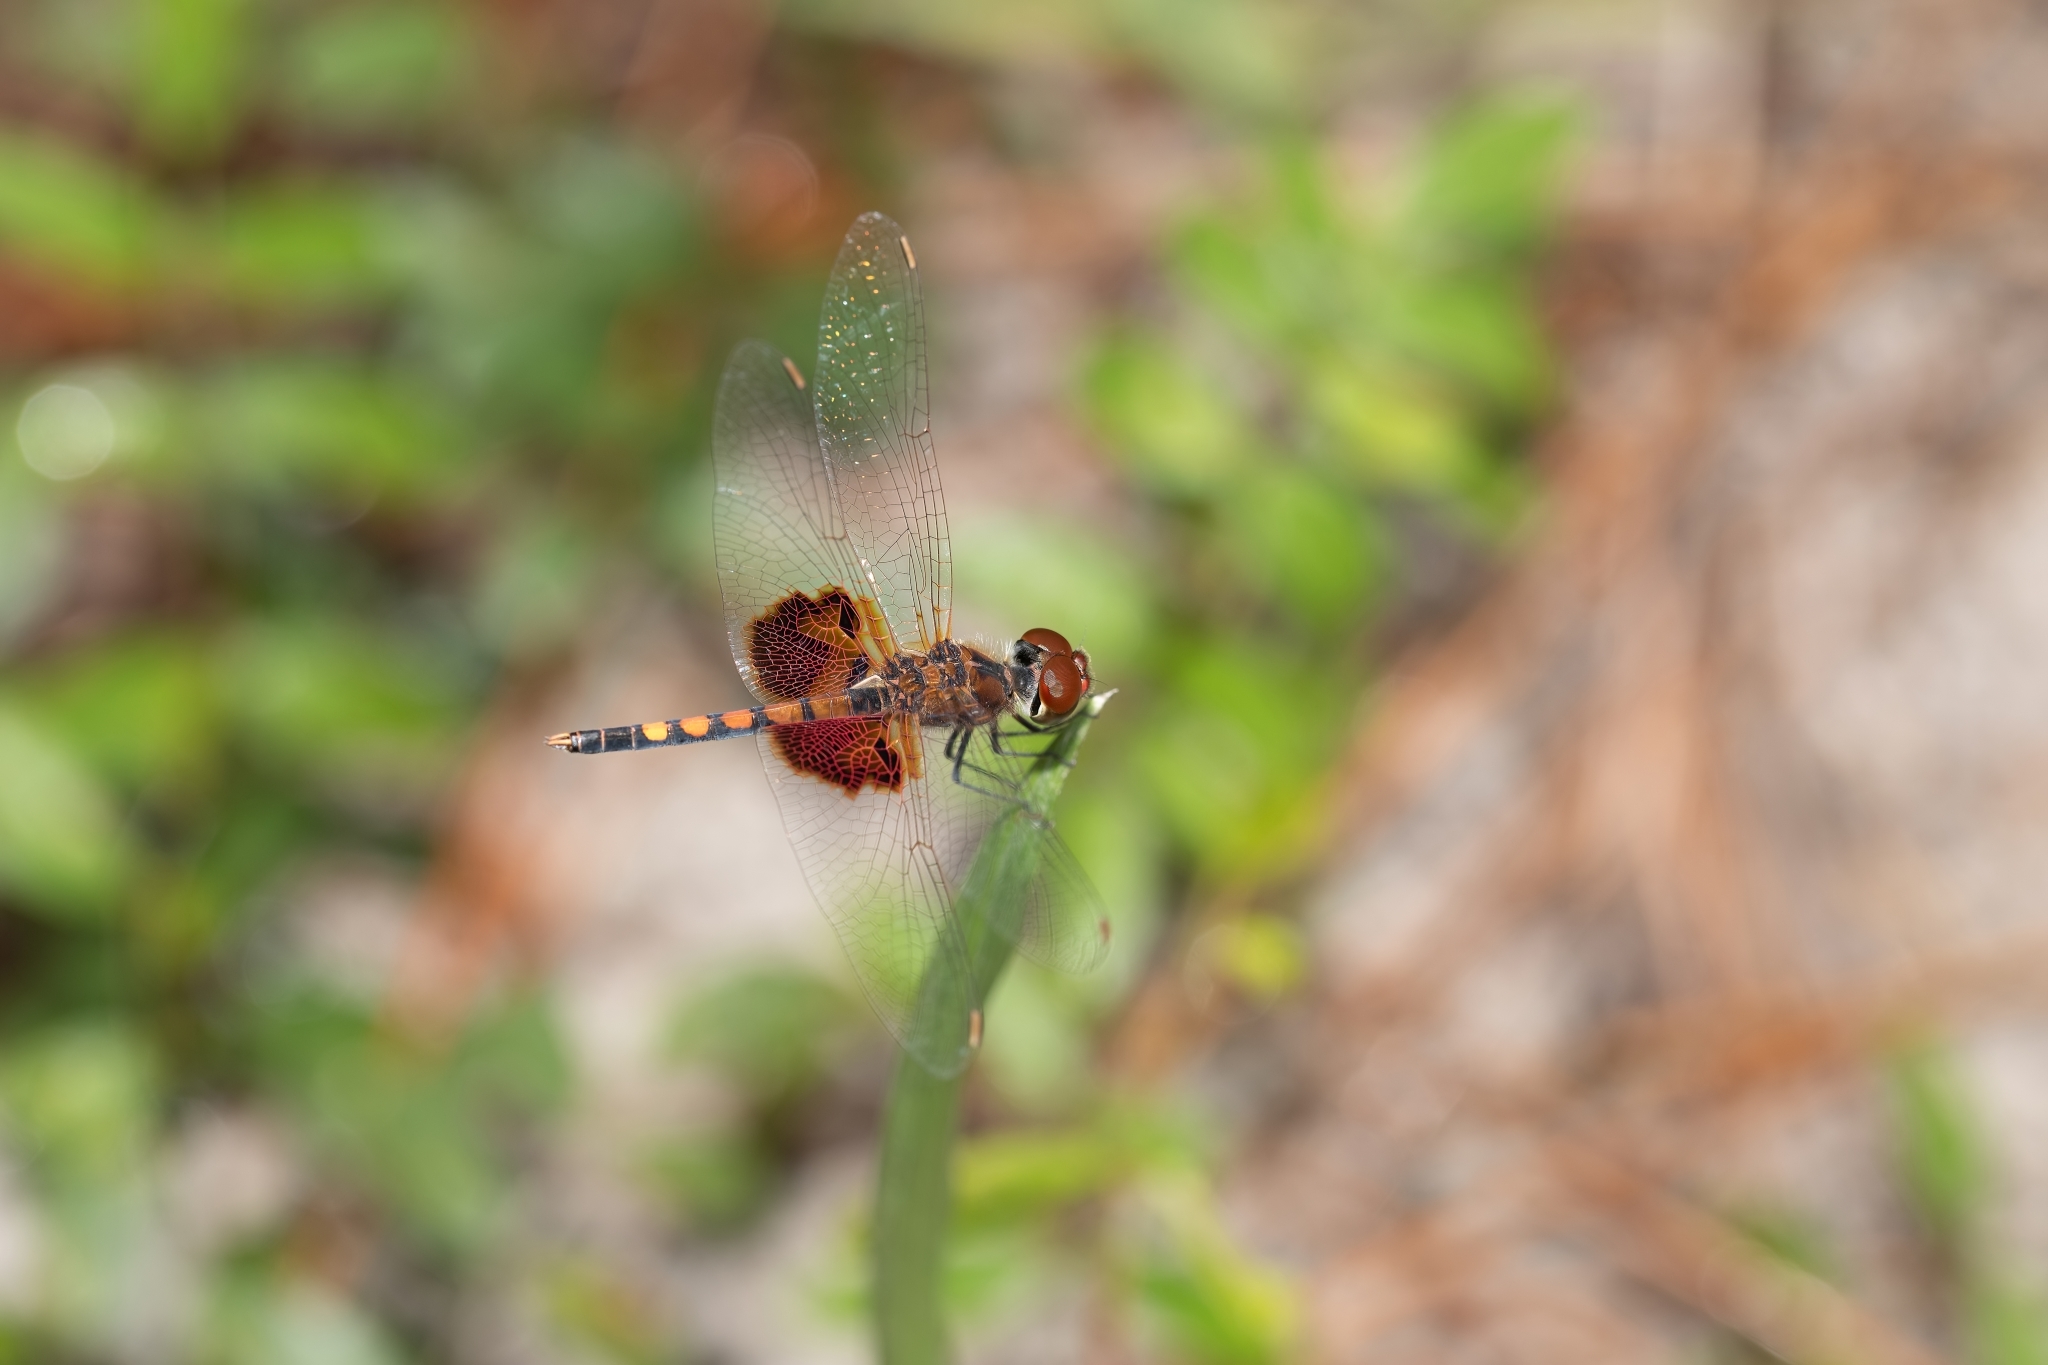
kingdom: Animalia
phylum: Arthropoda
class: Insecta
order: Odonata
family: Libellulidae
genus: Celithemis
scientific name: Celithemis amanda
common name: Amanda's pennant
